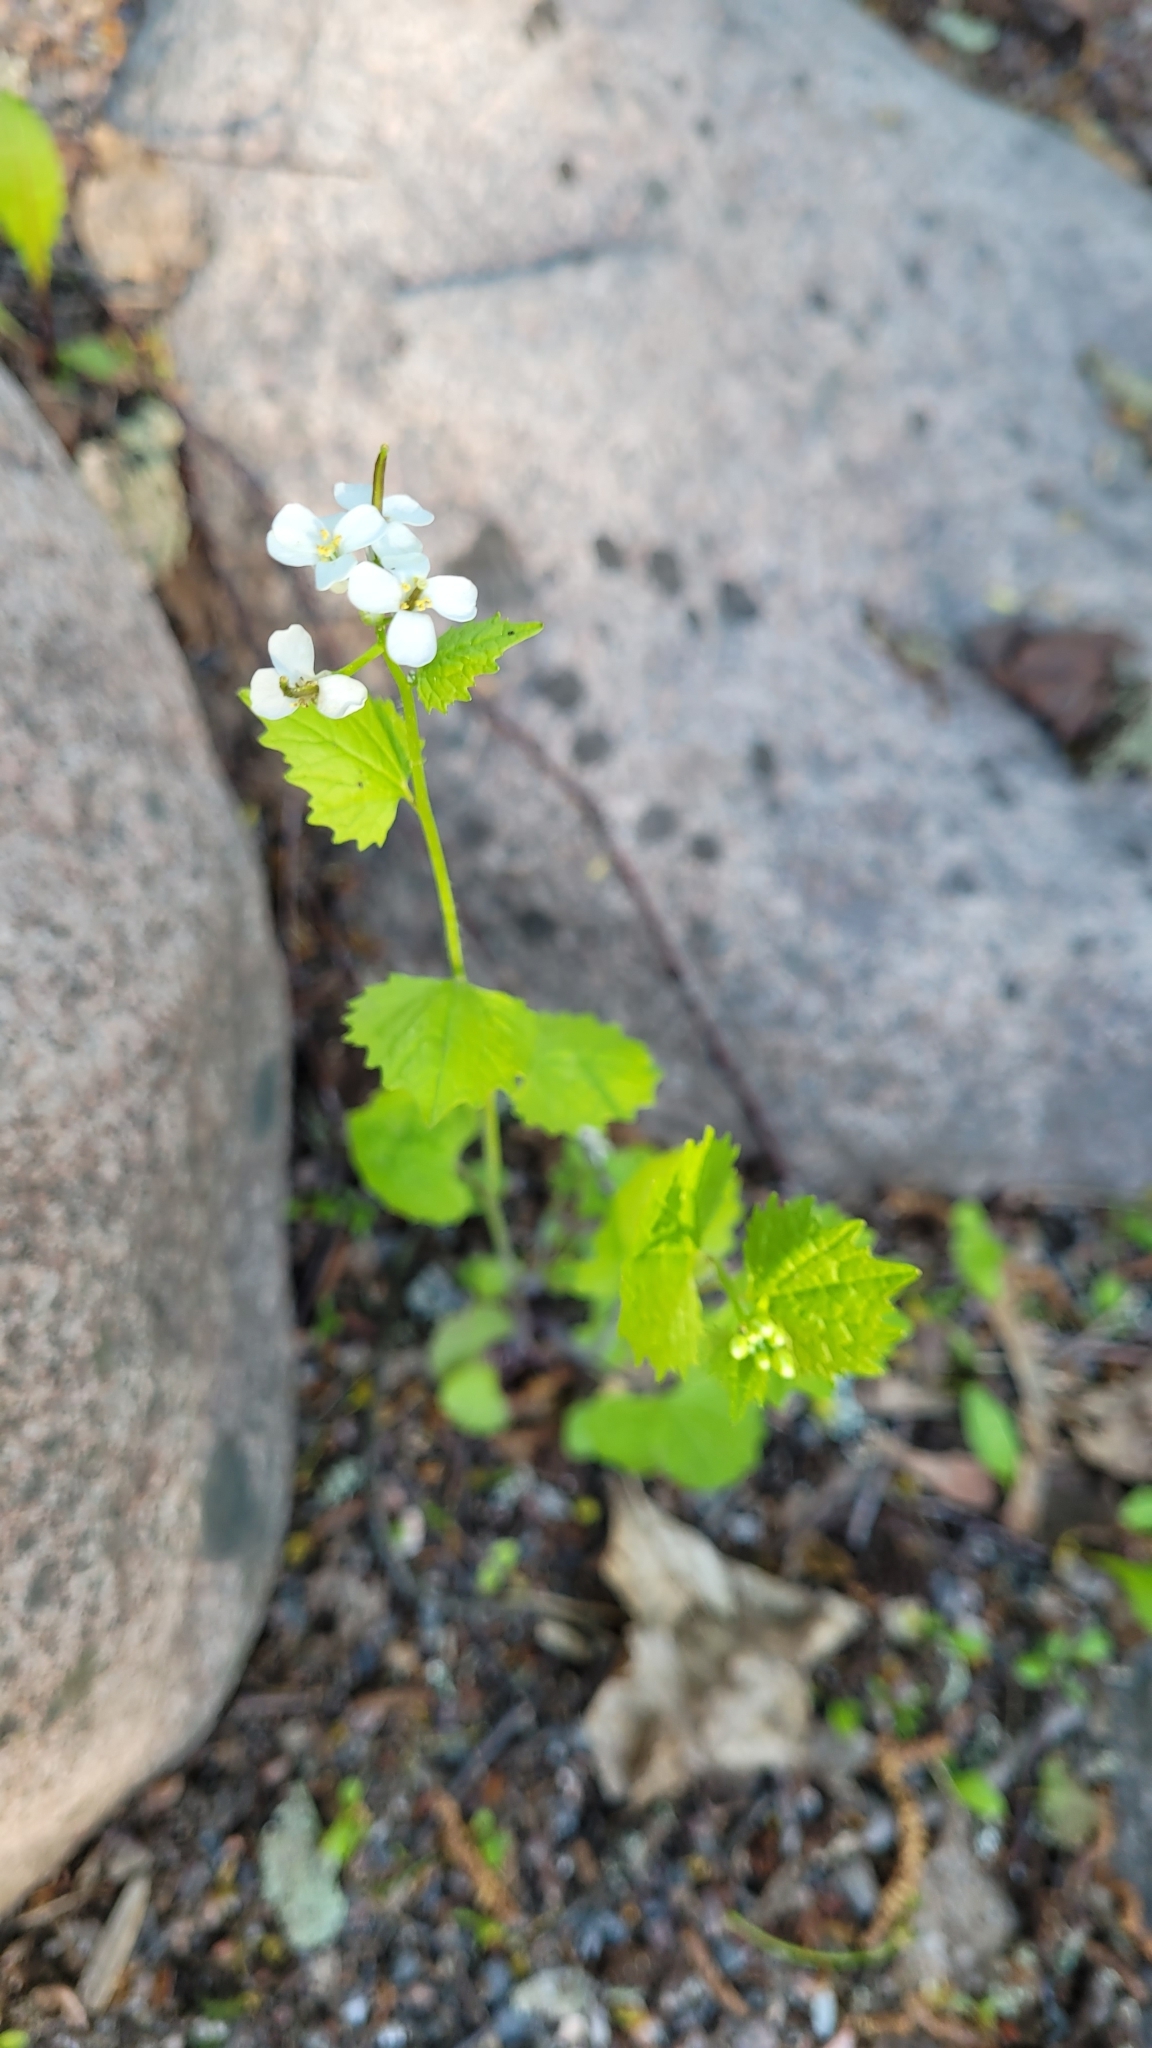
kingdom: Plantae
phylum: Tracheophyta
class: Magnoliopsida
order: Brassicales
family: Brassicaceae
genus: Alliaria
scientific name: Alliaria petiolata
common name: Garlic mustard
